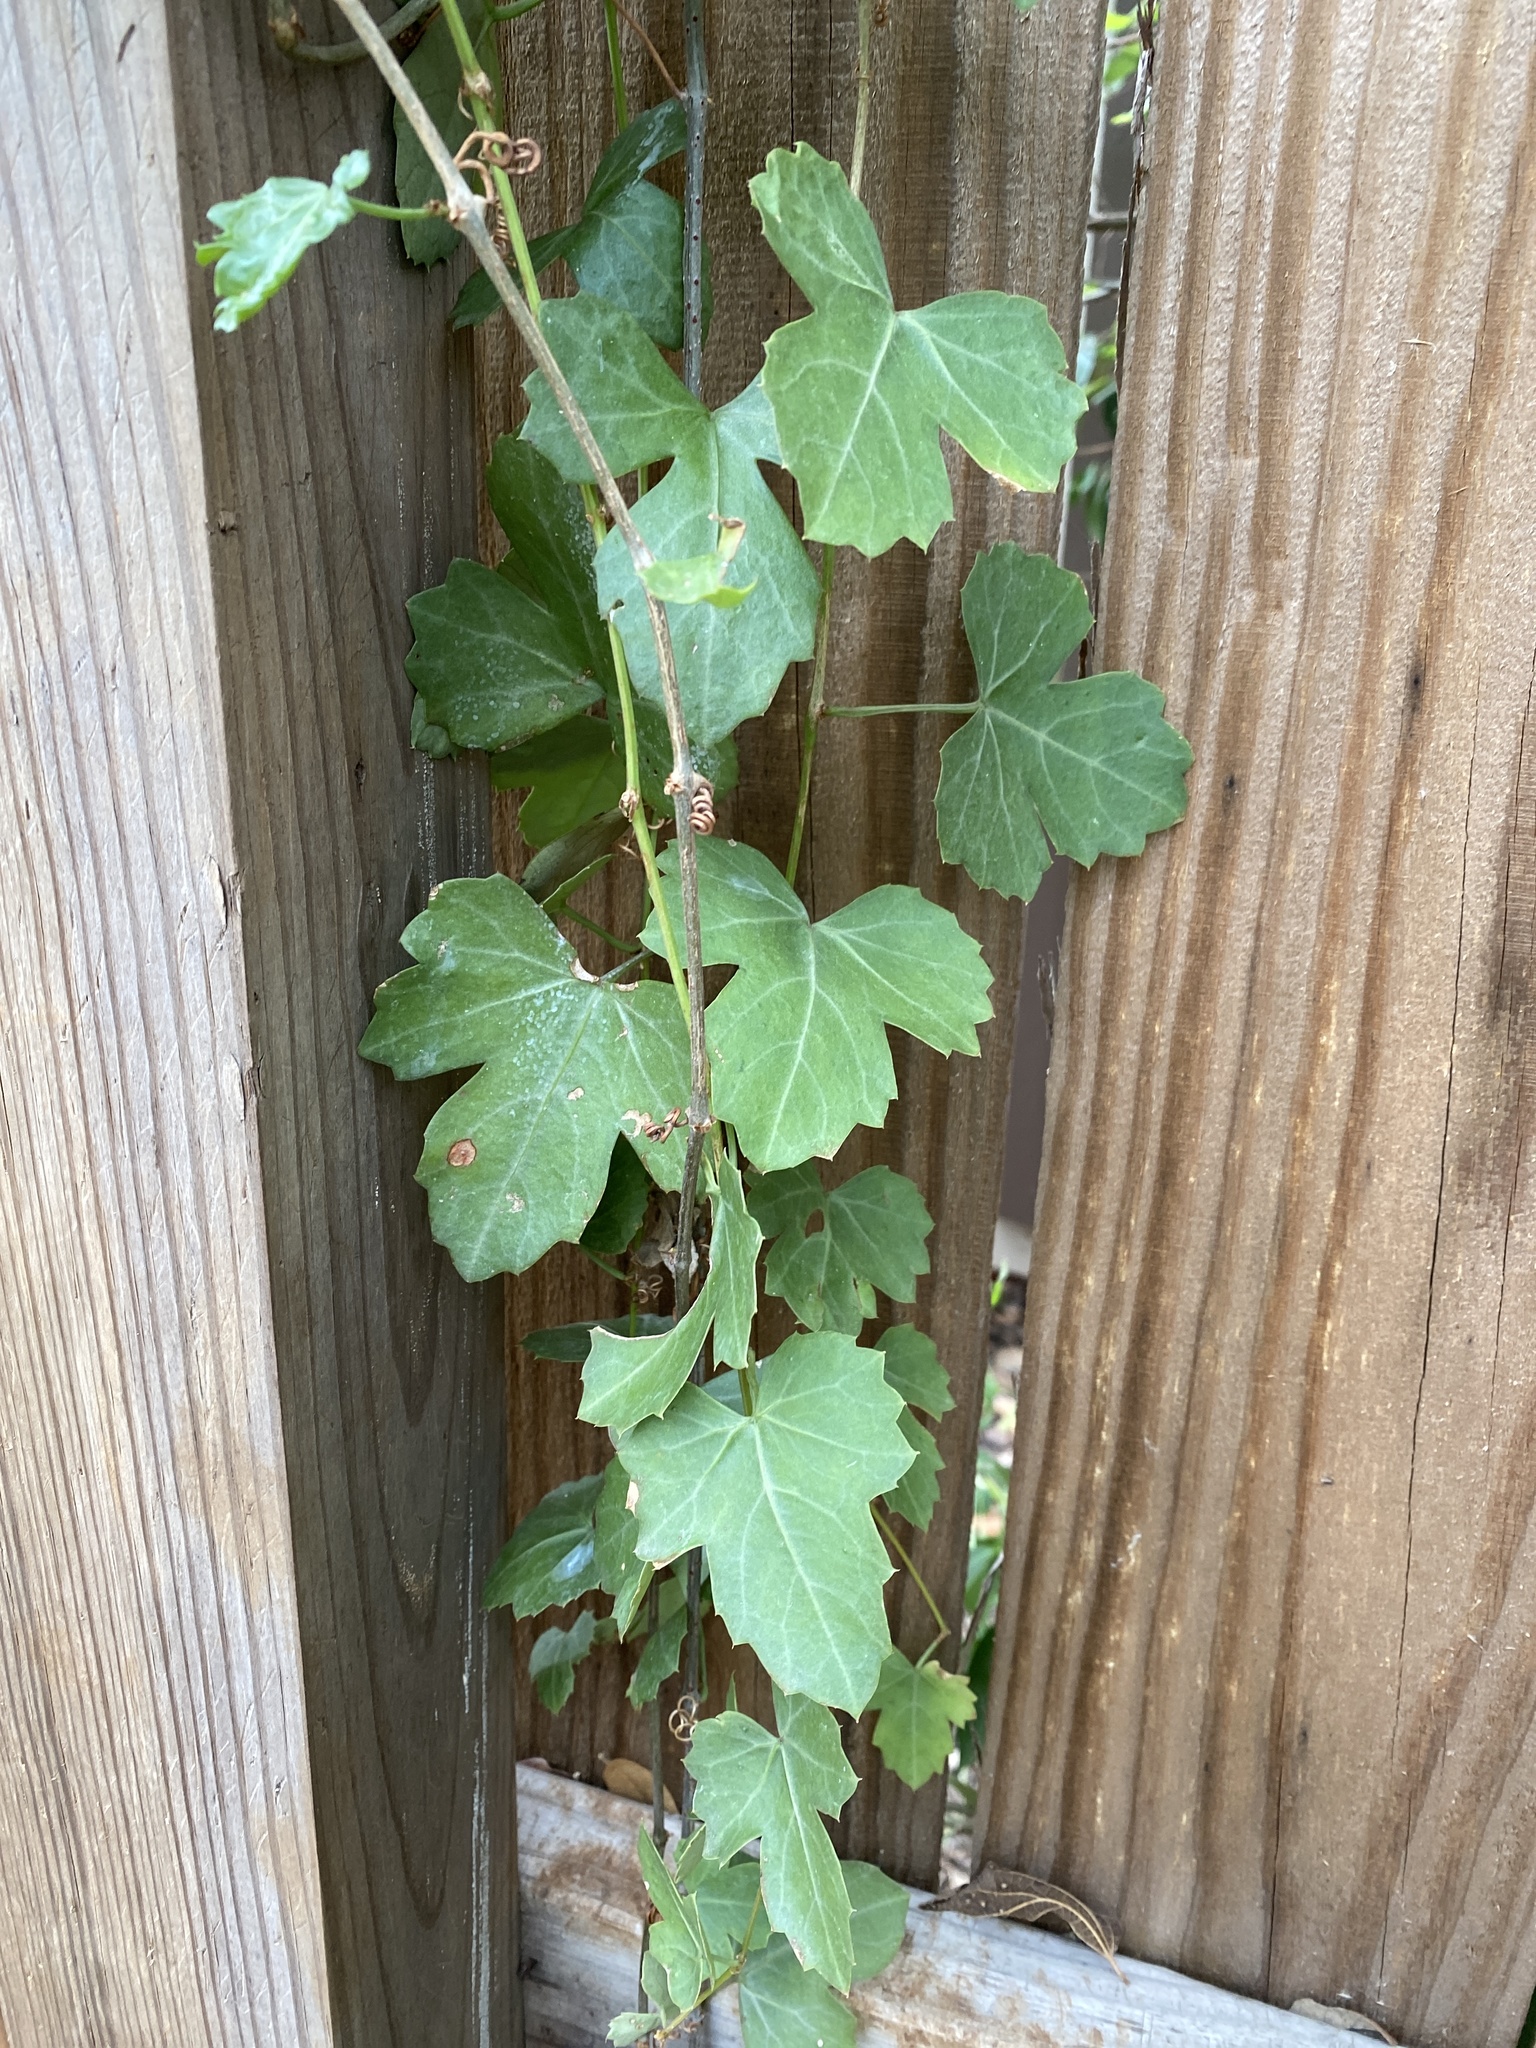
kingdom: Plantae
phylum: Tracheophyta
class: Magnoliopsida
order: Vitales
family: Vitaceae
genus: Cissus
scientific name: Cissus trifoliata
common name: Vine-sorrel
